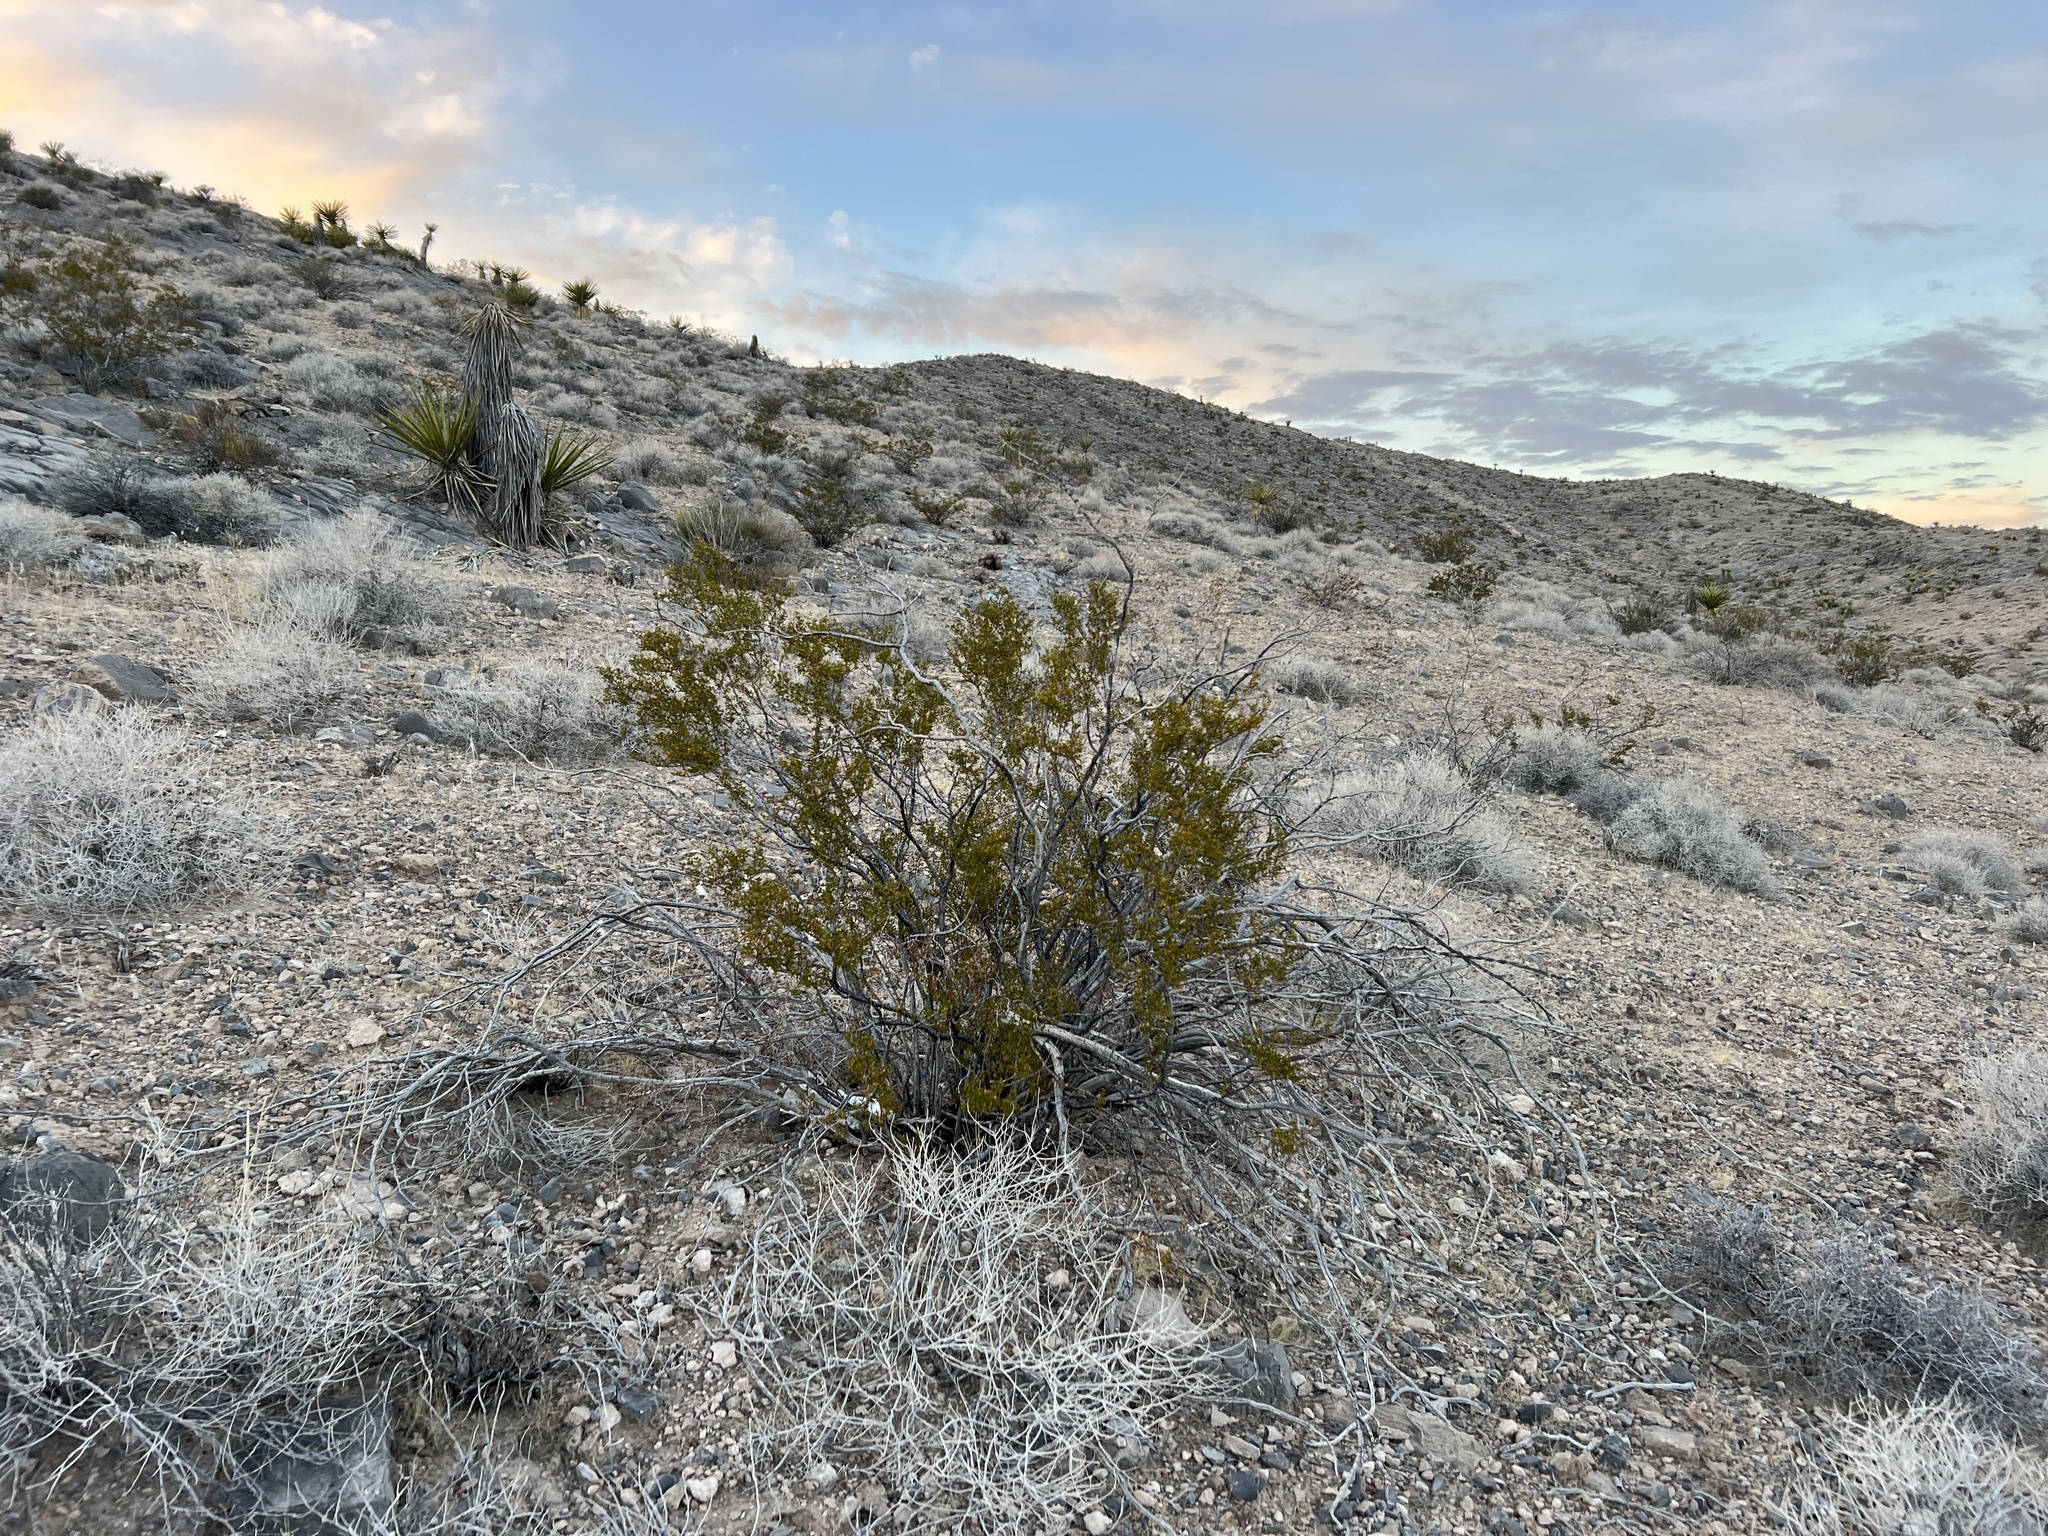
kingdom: Plantae
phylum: Tracheophyta
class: Magnoliopsida
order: Zygophyllales
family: Zygophyllaceae
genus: Larrea
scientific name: Larrea tridentata
